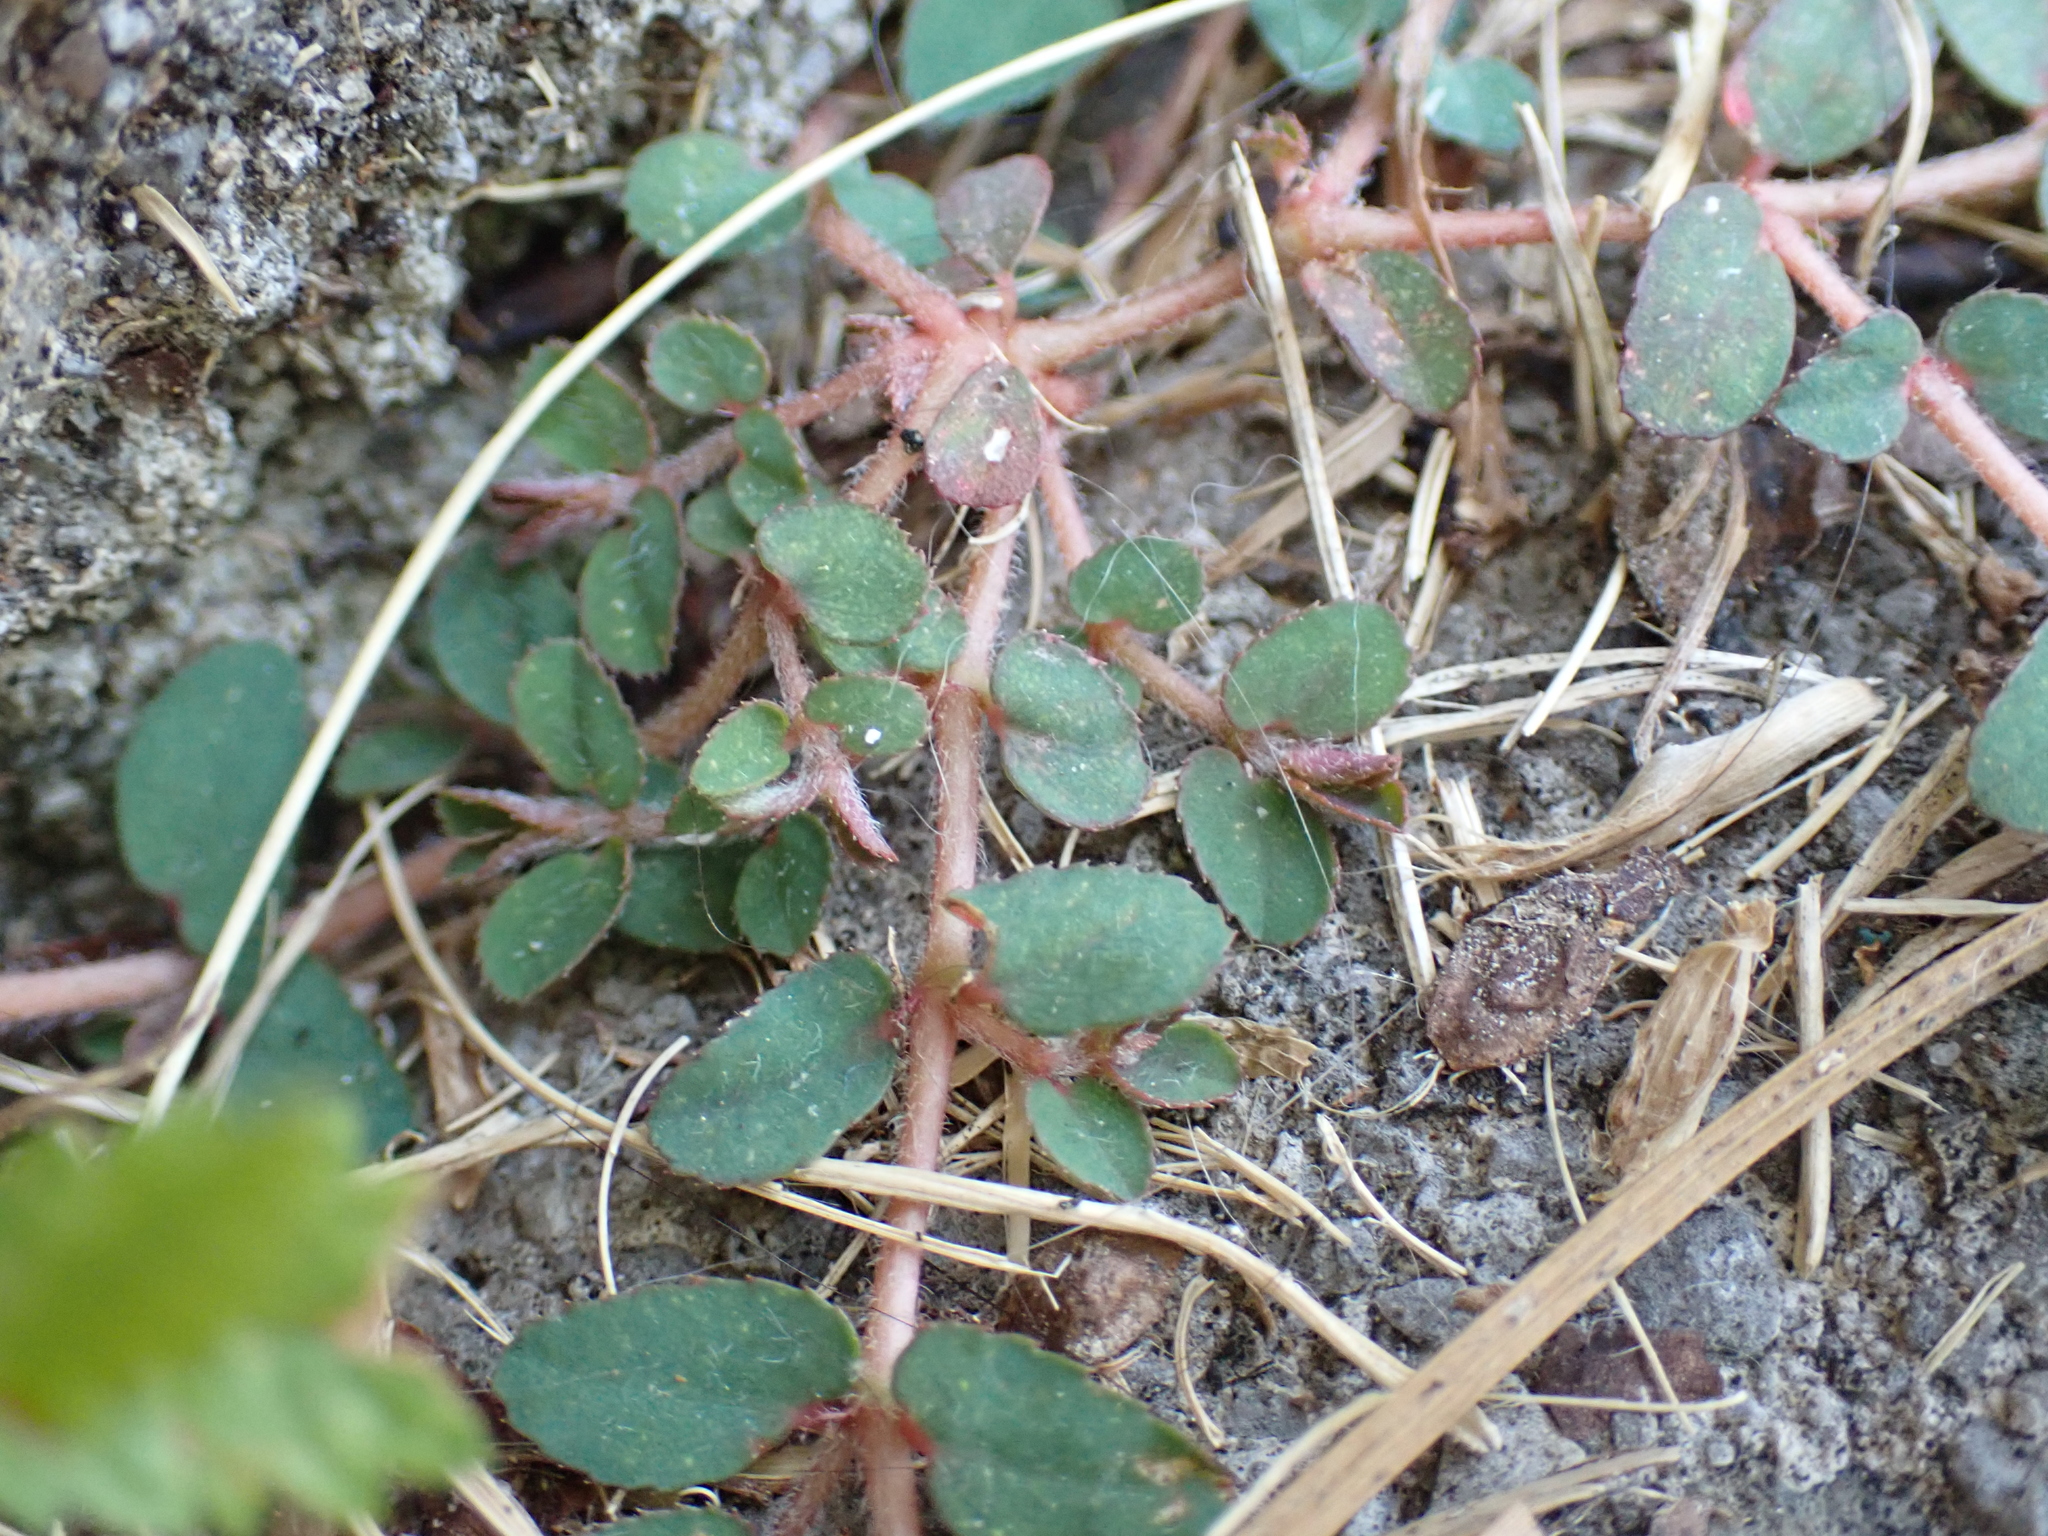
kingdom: Plantae
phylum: Tracheophyta
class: Magnoliopsida
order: Malpighiales
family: Euphorbiaceae
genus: Euphorbia
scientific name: Euphorbia maculata
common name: Spotted spurge
